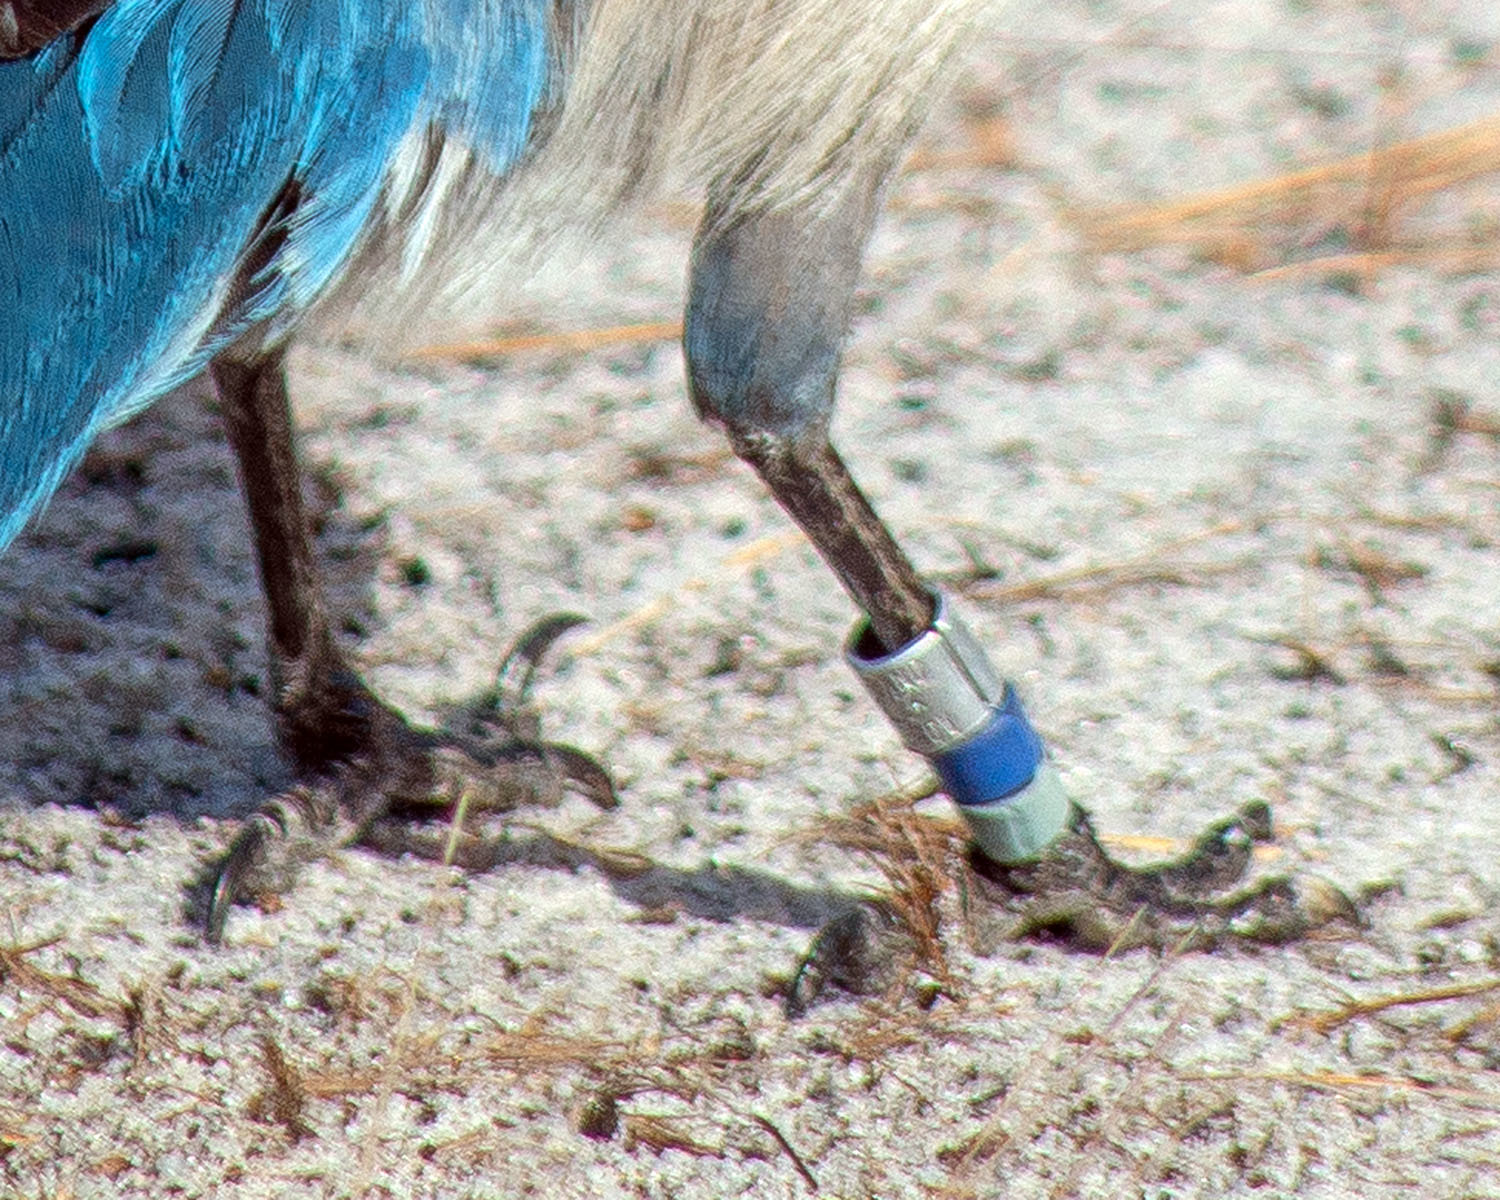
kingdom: Animalia
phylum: Chordata
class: Aves
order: Passeriformes
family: Corvidae
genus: Aphelocoma
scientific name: Aphelocoma coerulescens
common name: Florida scrub jay
